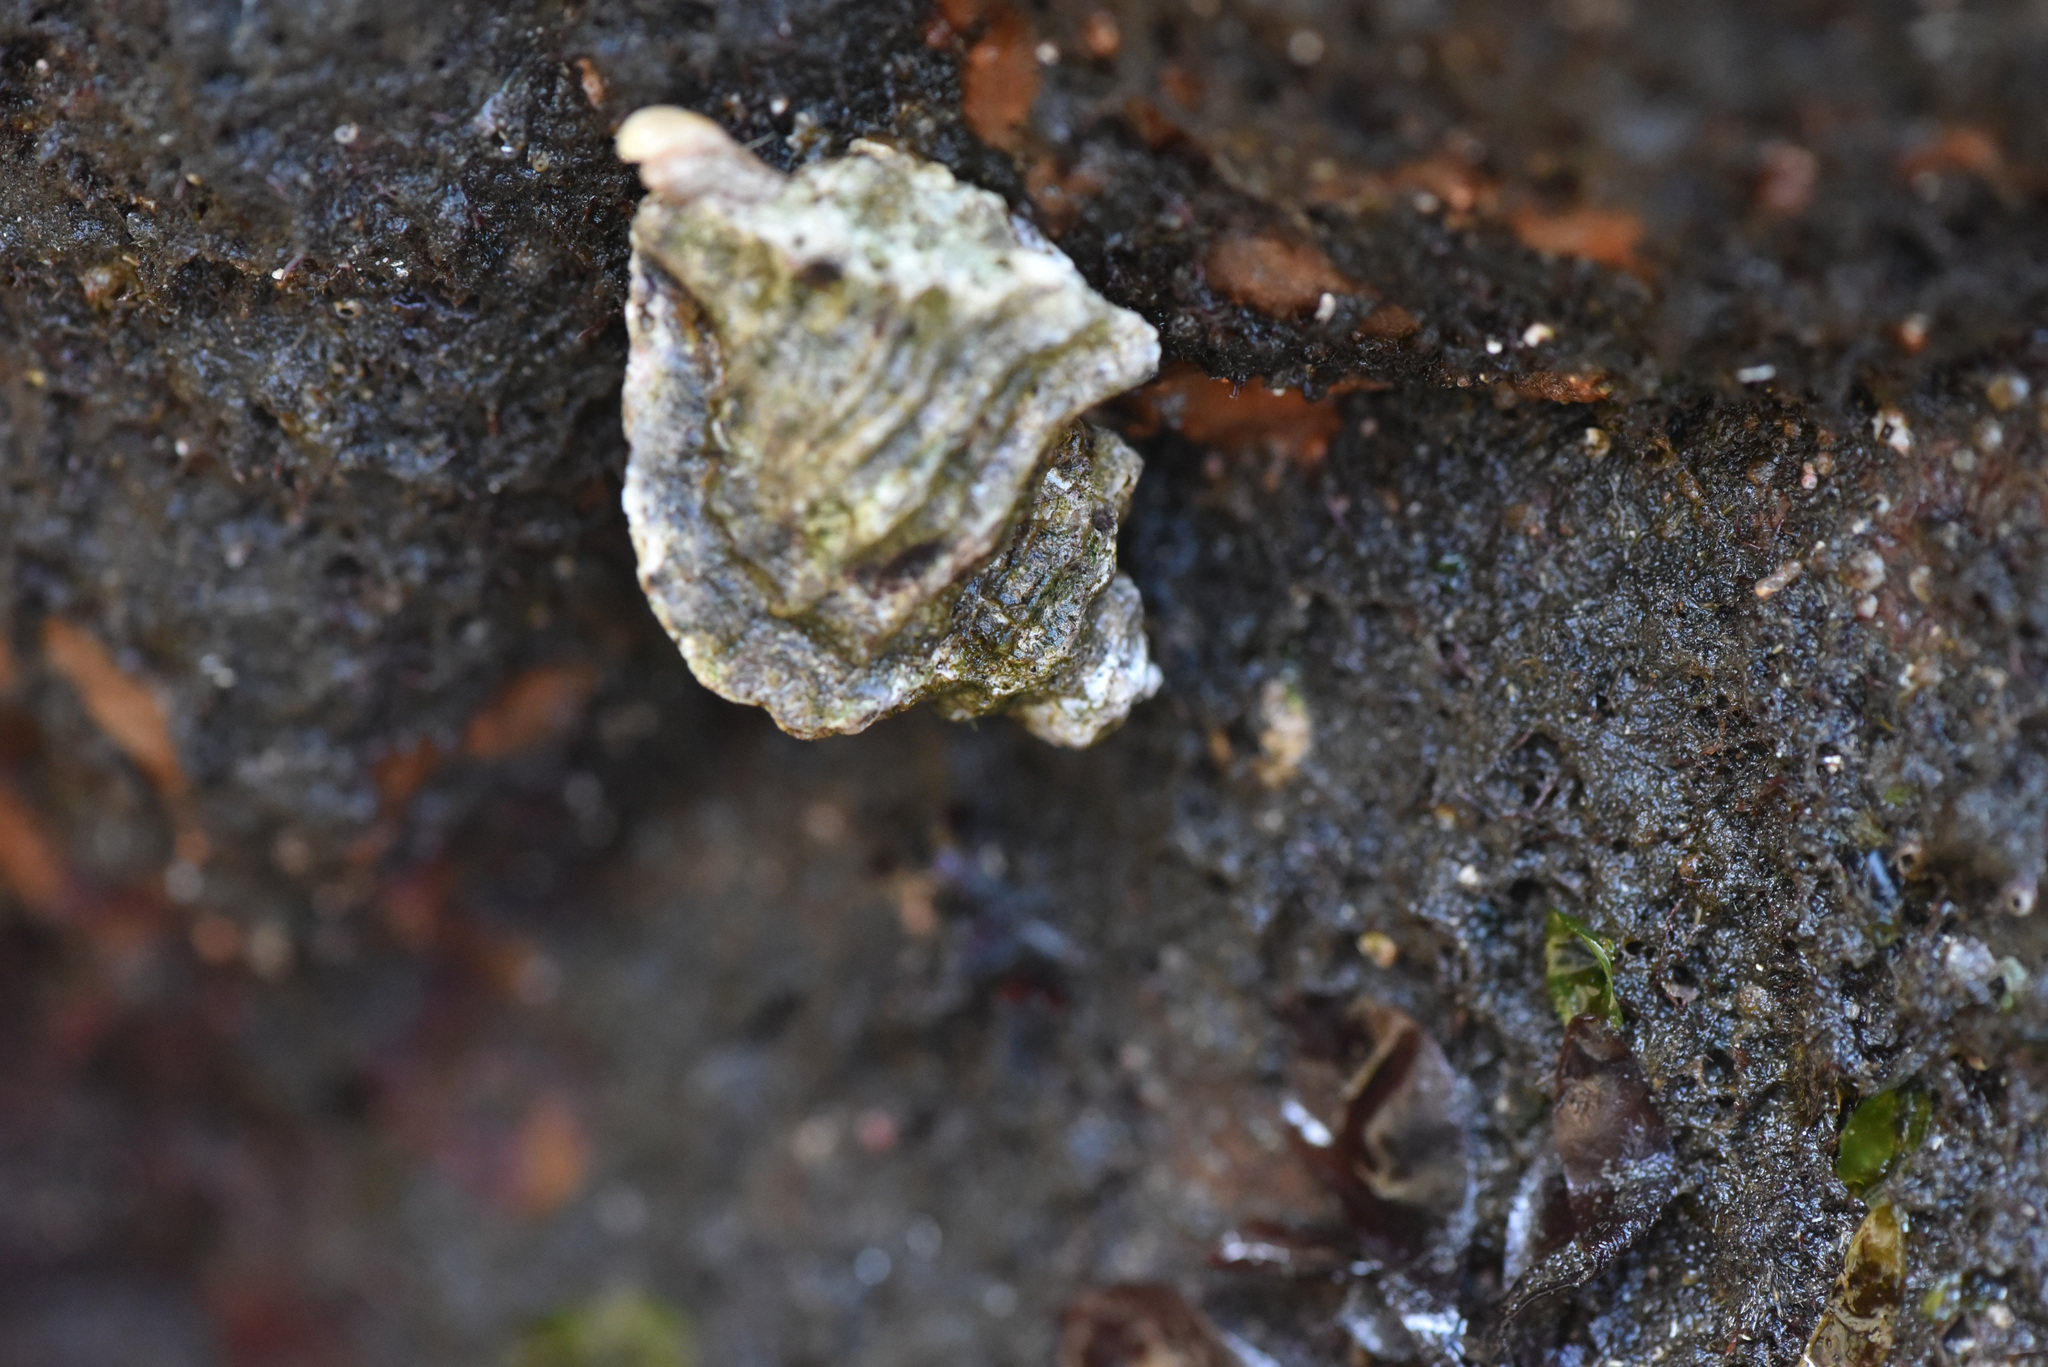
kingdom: Animalia
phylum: Mollusca
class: Gastropoda
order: Neogastropoda
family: Muricidae
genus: Ceratostoma
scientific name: Ceratostoma foliatum
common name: Foliate thorn purpura
